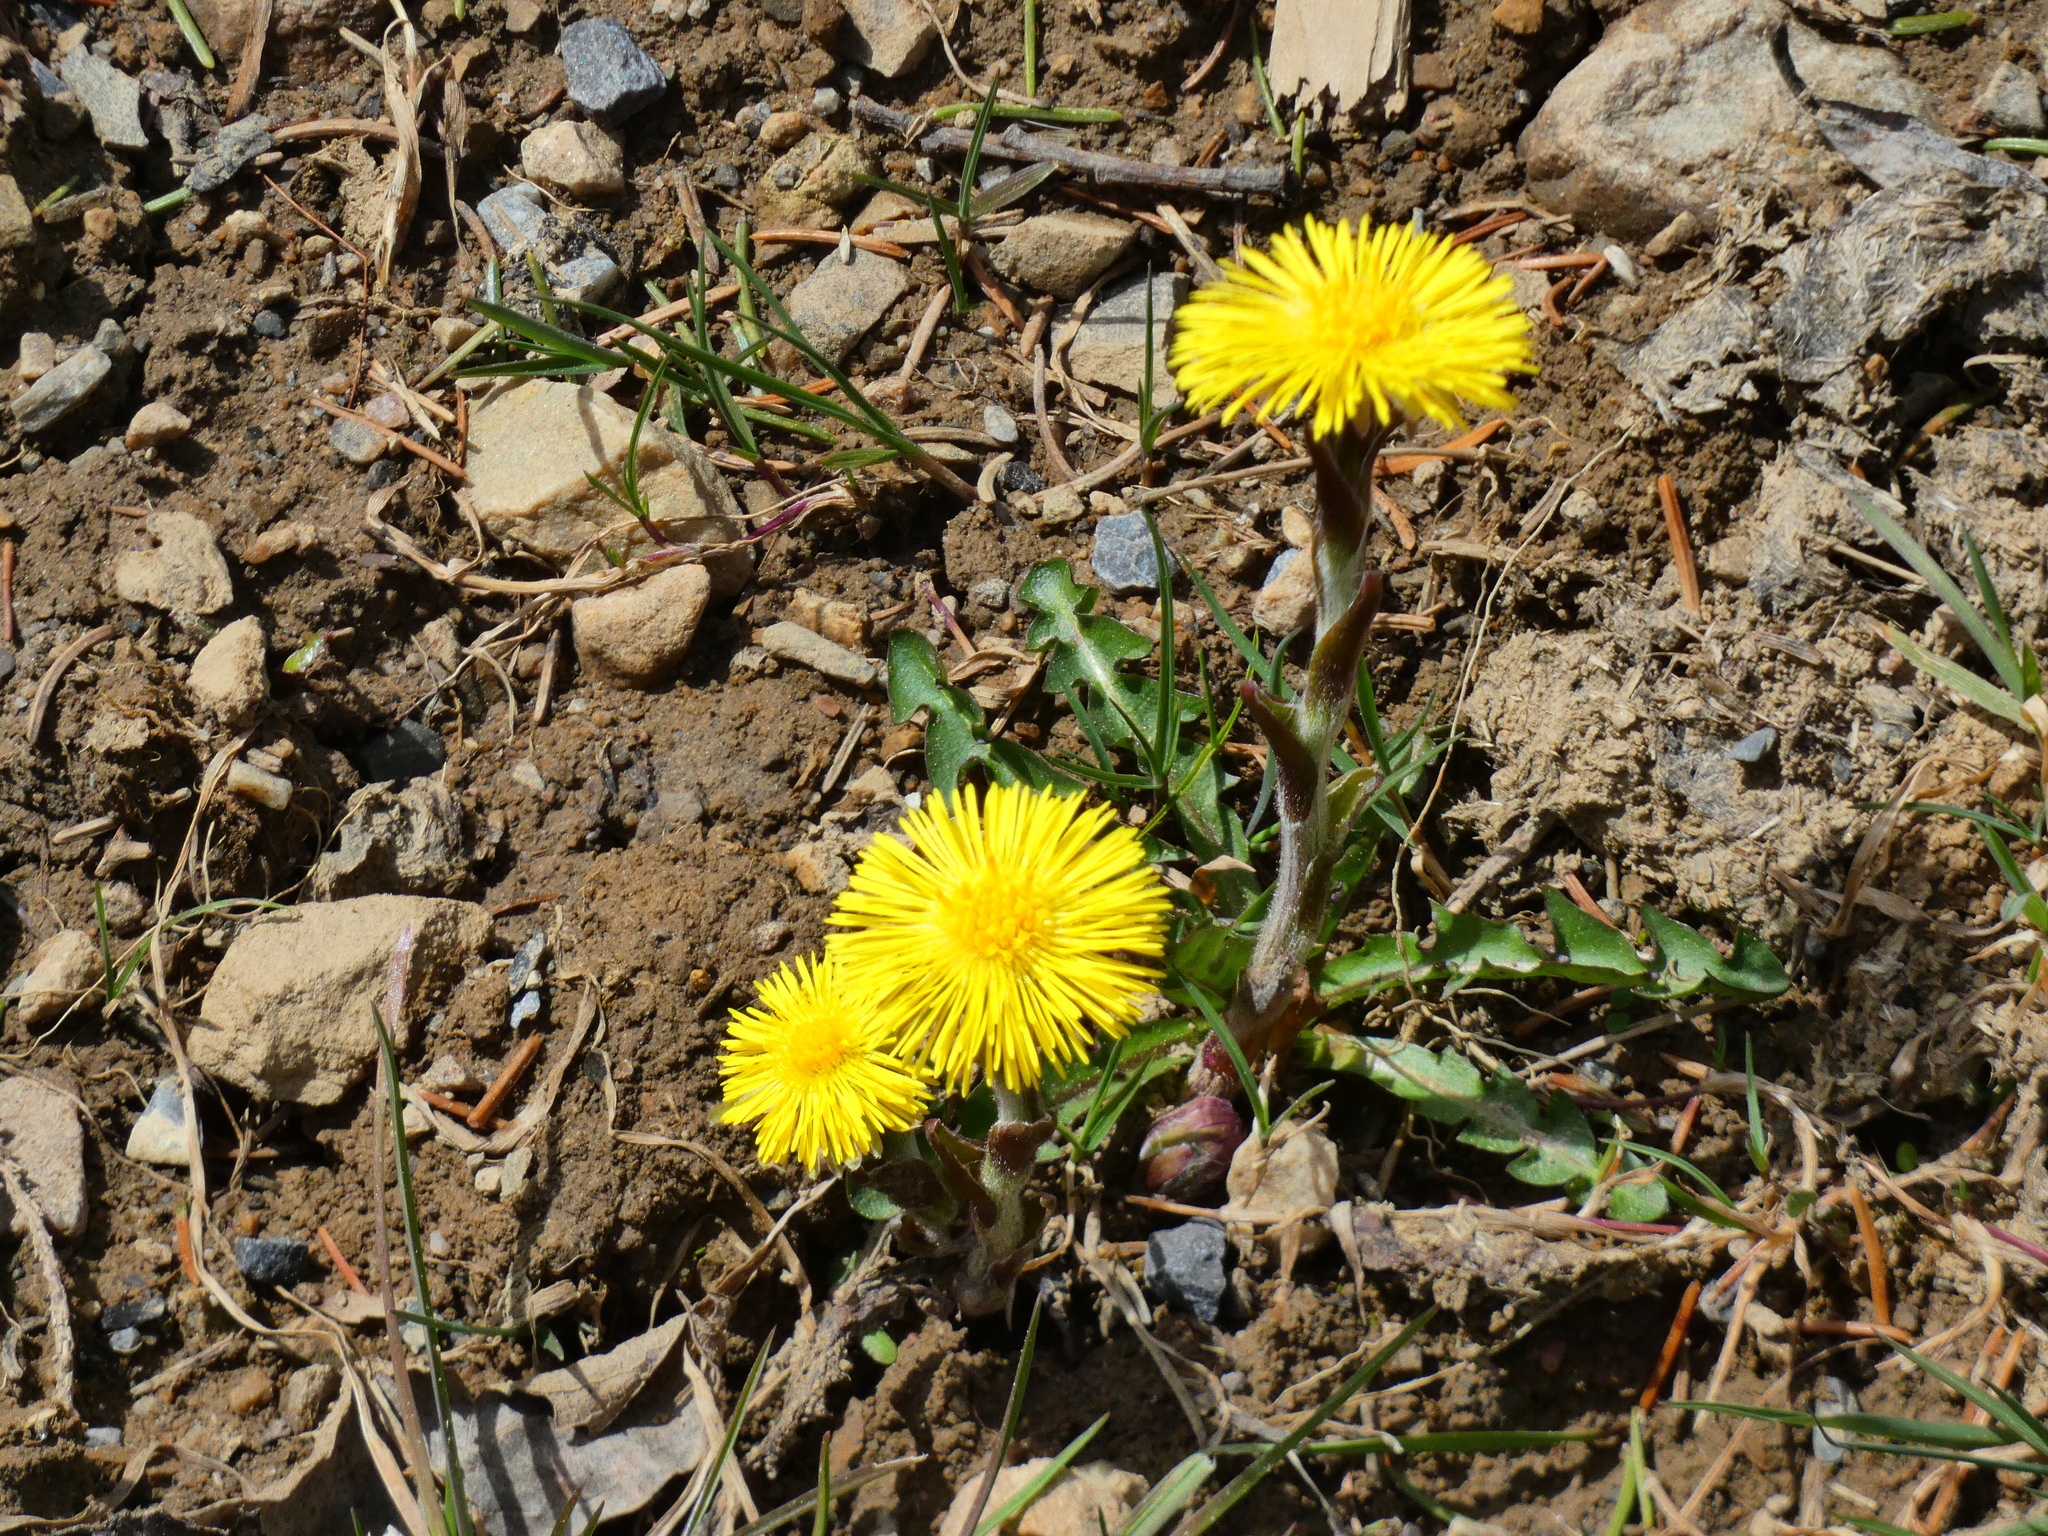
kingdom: Plantae
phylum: Tracheophyta
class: Magnoliopsida
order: Asterales
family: Asteraceae
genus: Tussilago
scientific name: Tussilago farfara
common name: Coltsfoot
